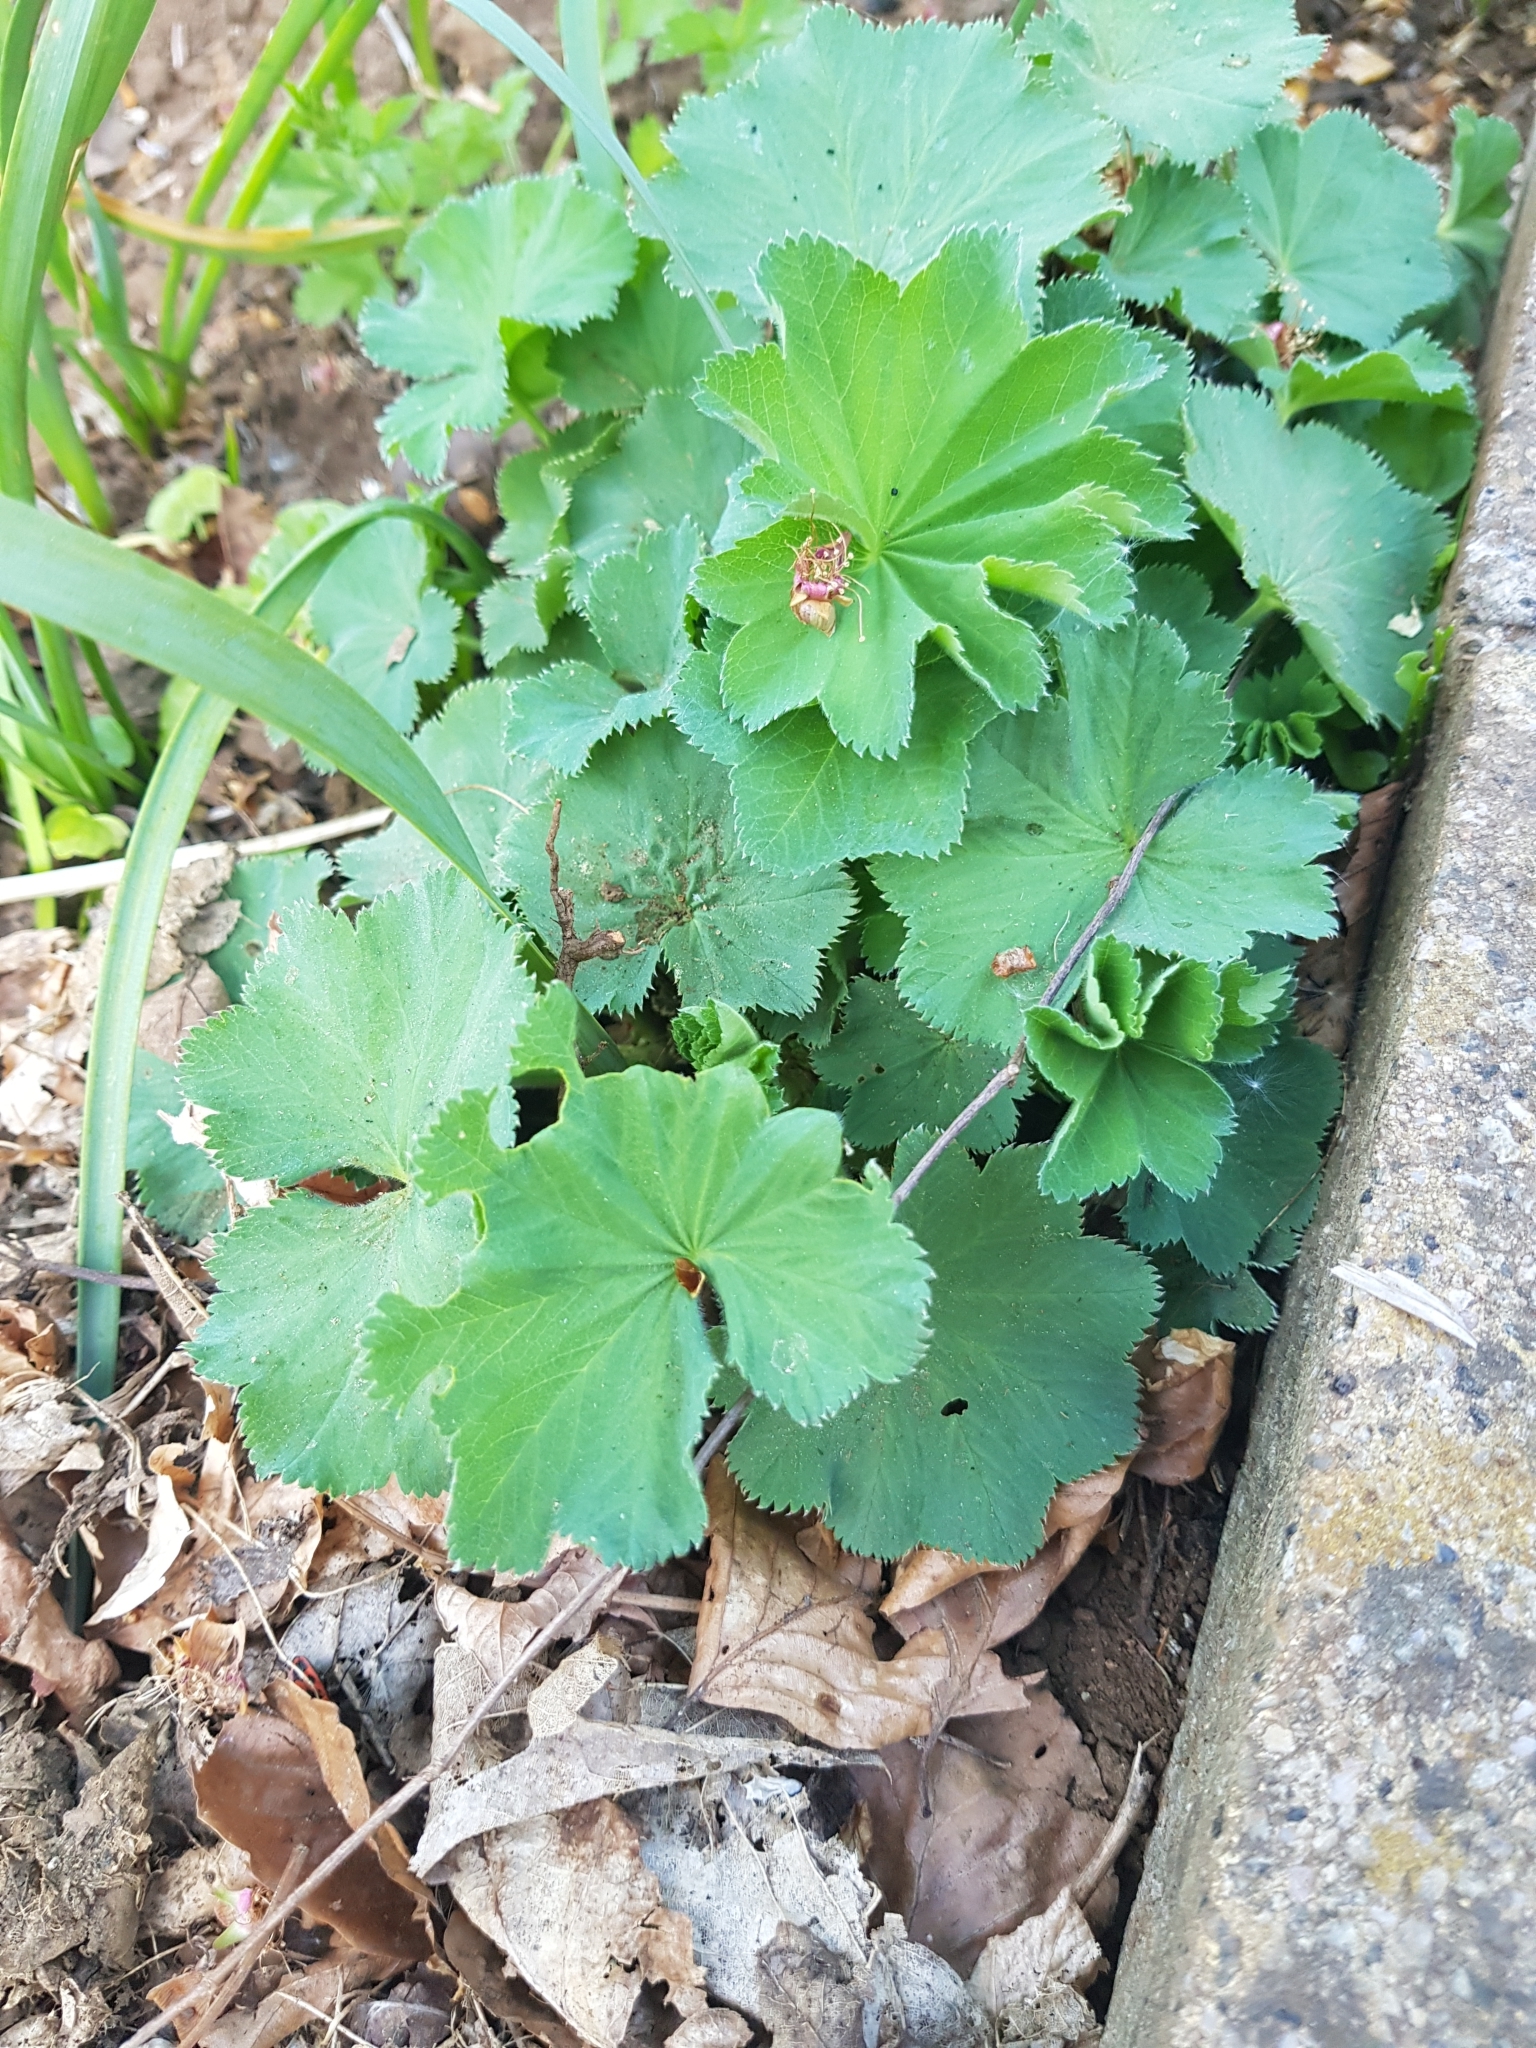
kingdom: Plantae
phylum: Tracheophyta
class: Magnoliopsida
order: Rosales
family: Rosaceae
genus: Alchemilla
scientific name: Alchemilla mollis
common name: Lady's-mantle
